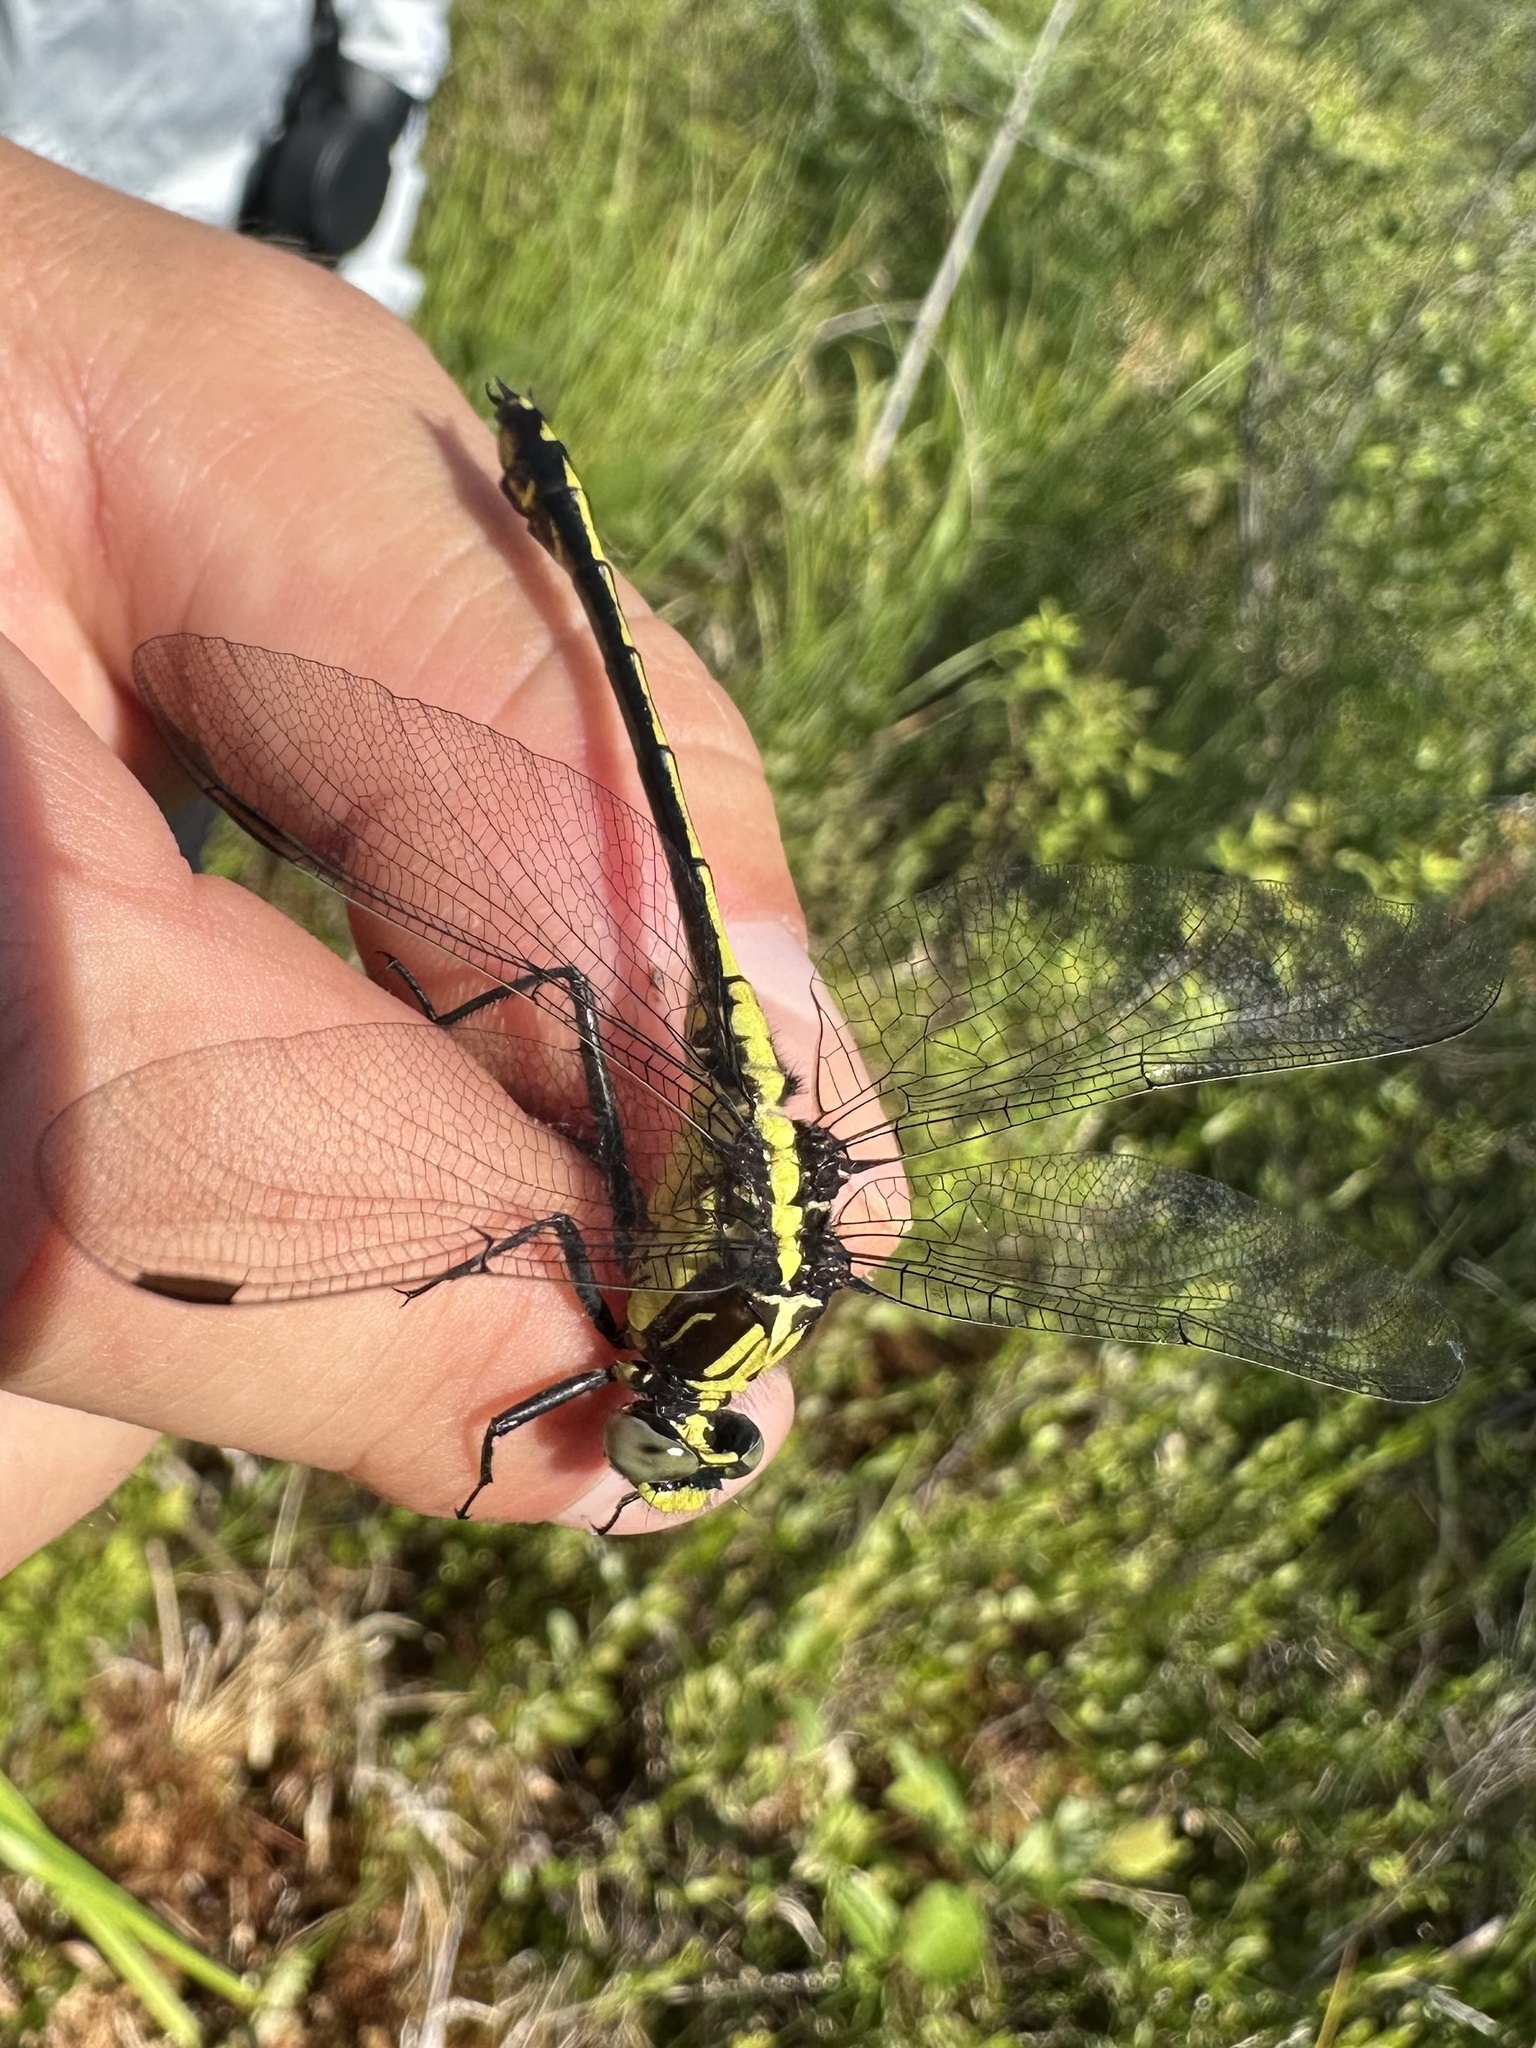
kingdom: Animalia
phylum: Arthropoda
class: Insecta
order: Odonata
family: Gomphidae
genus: Dromogomphus
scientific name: Dromogomphus spinosus
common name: Black-shouldered spinyleg
